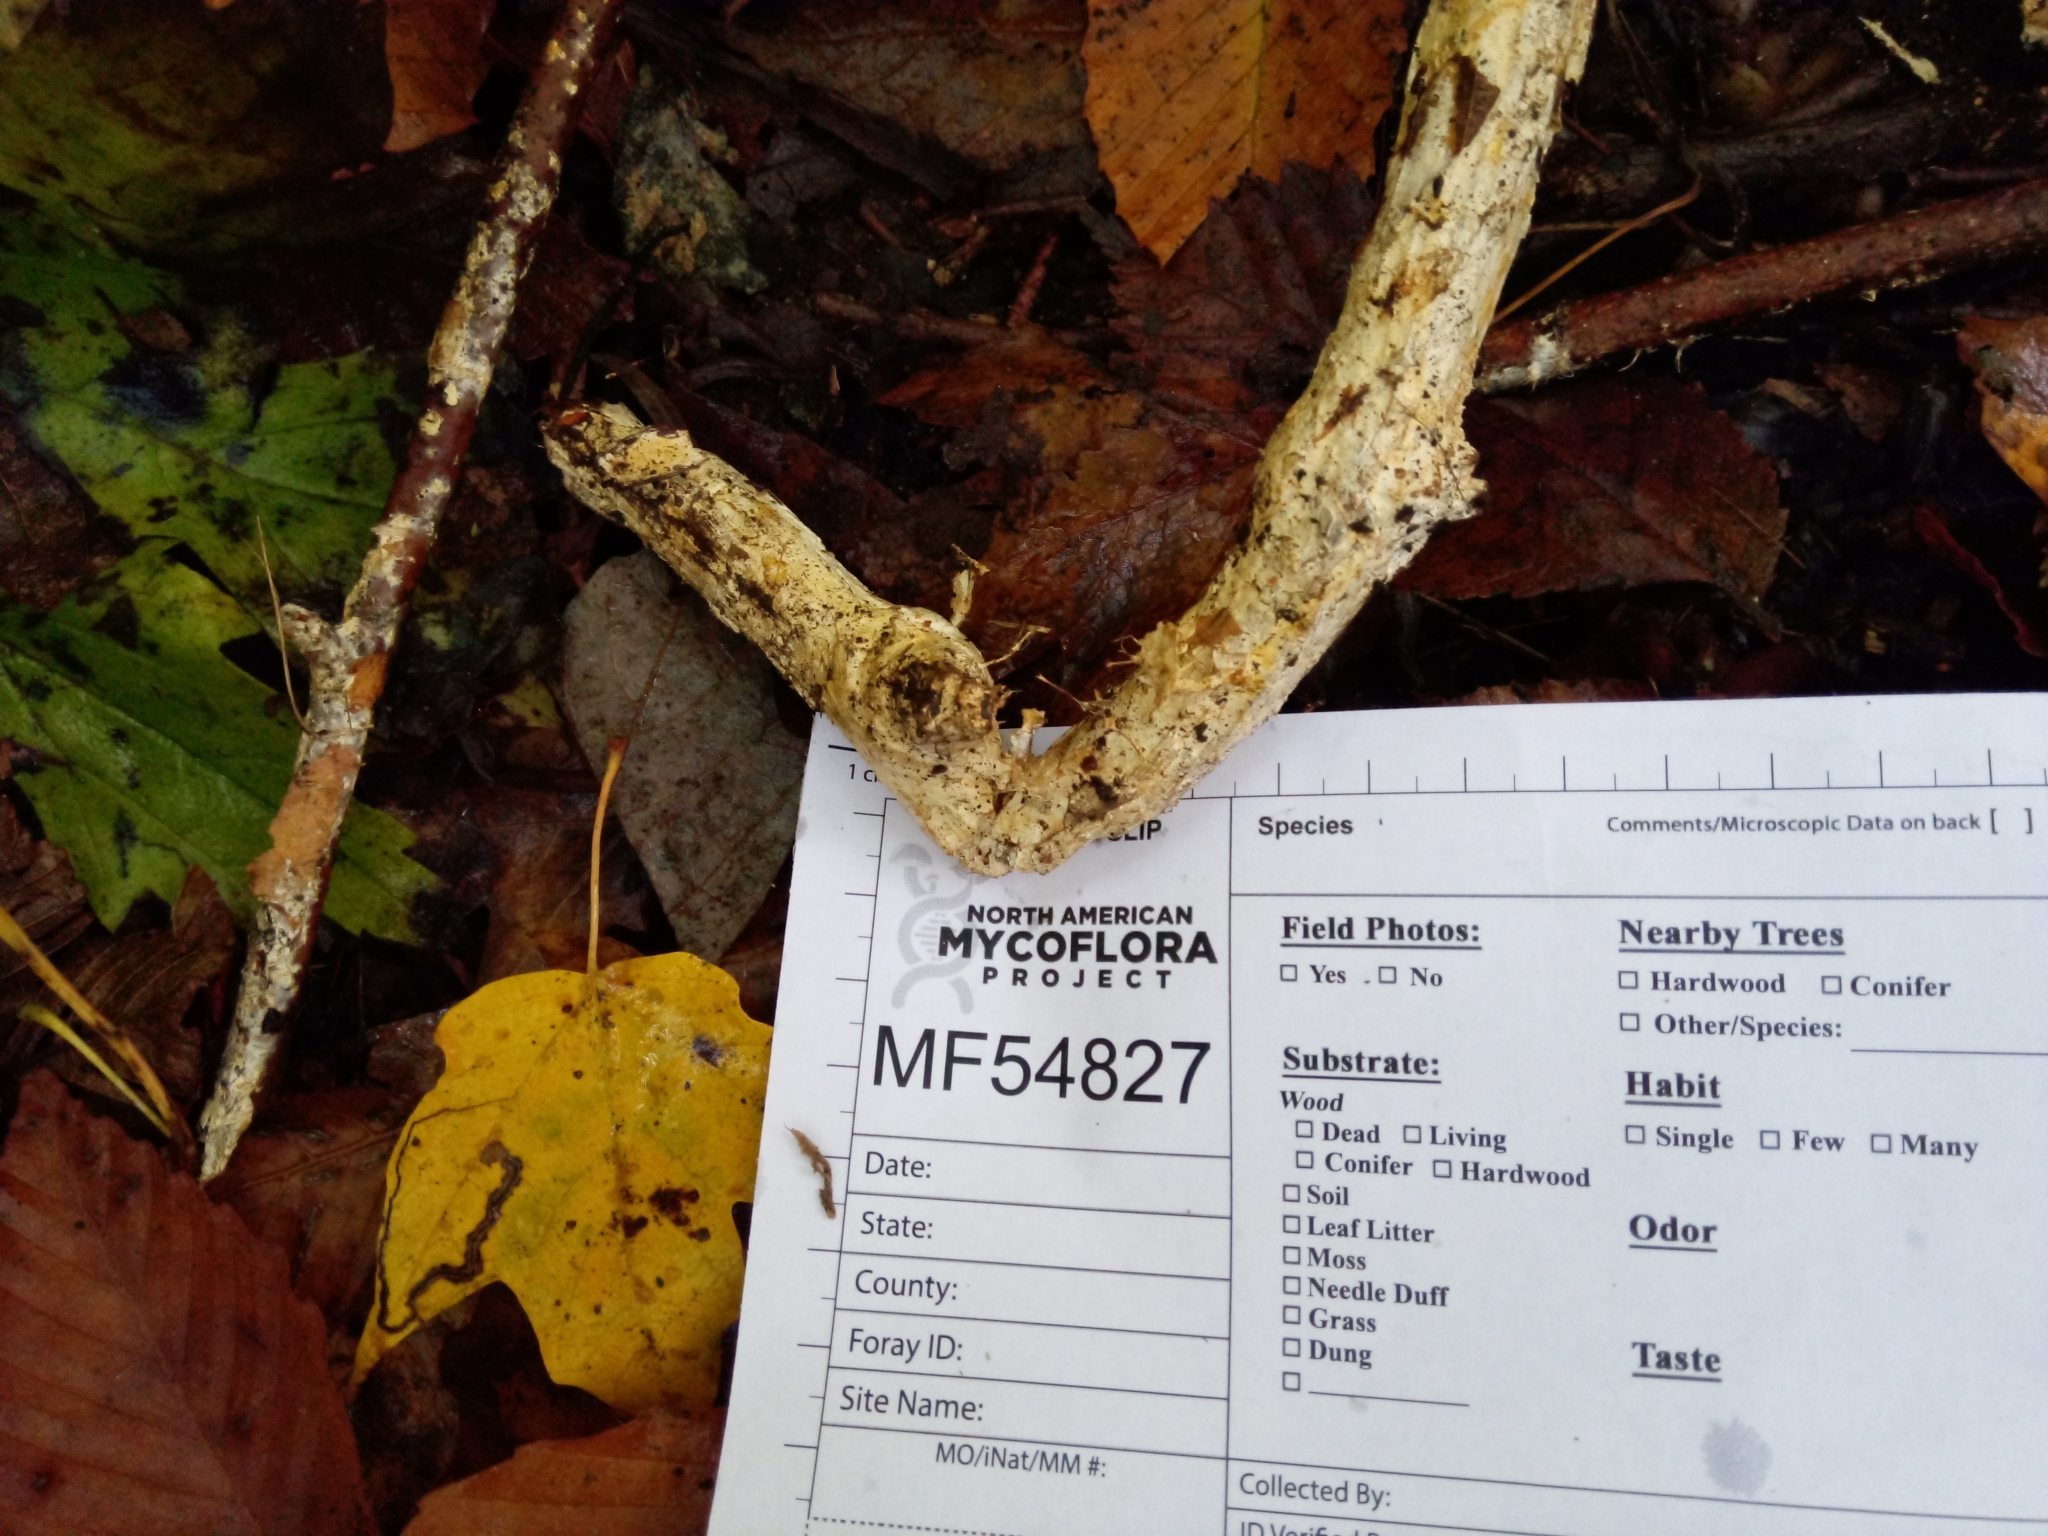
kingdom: Fungi
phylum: Basidiomycota
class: Agaricomycetes
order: Polyporales
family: Polyporaceae
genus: Perenniporia
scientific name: Perenniporia bostonensis
